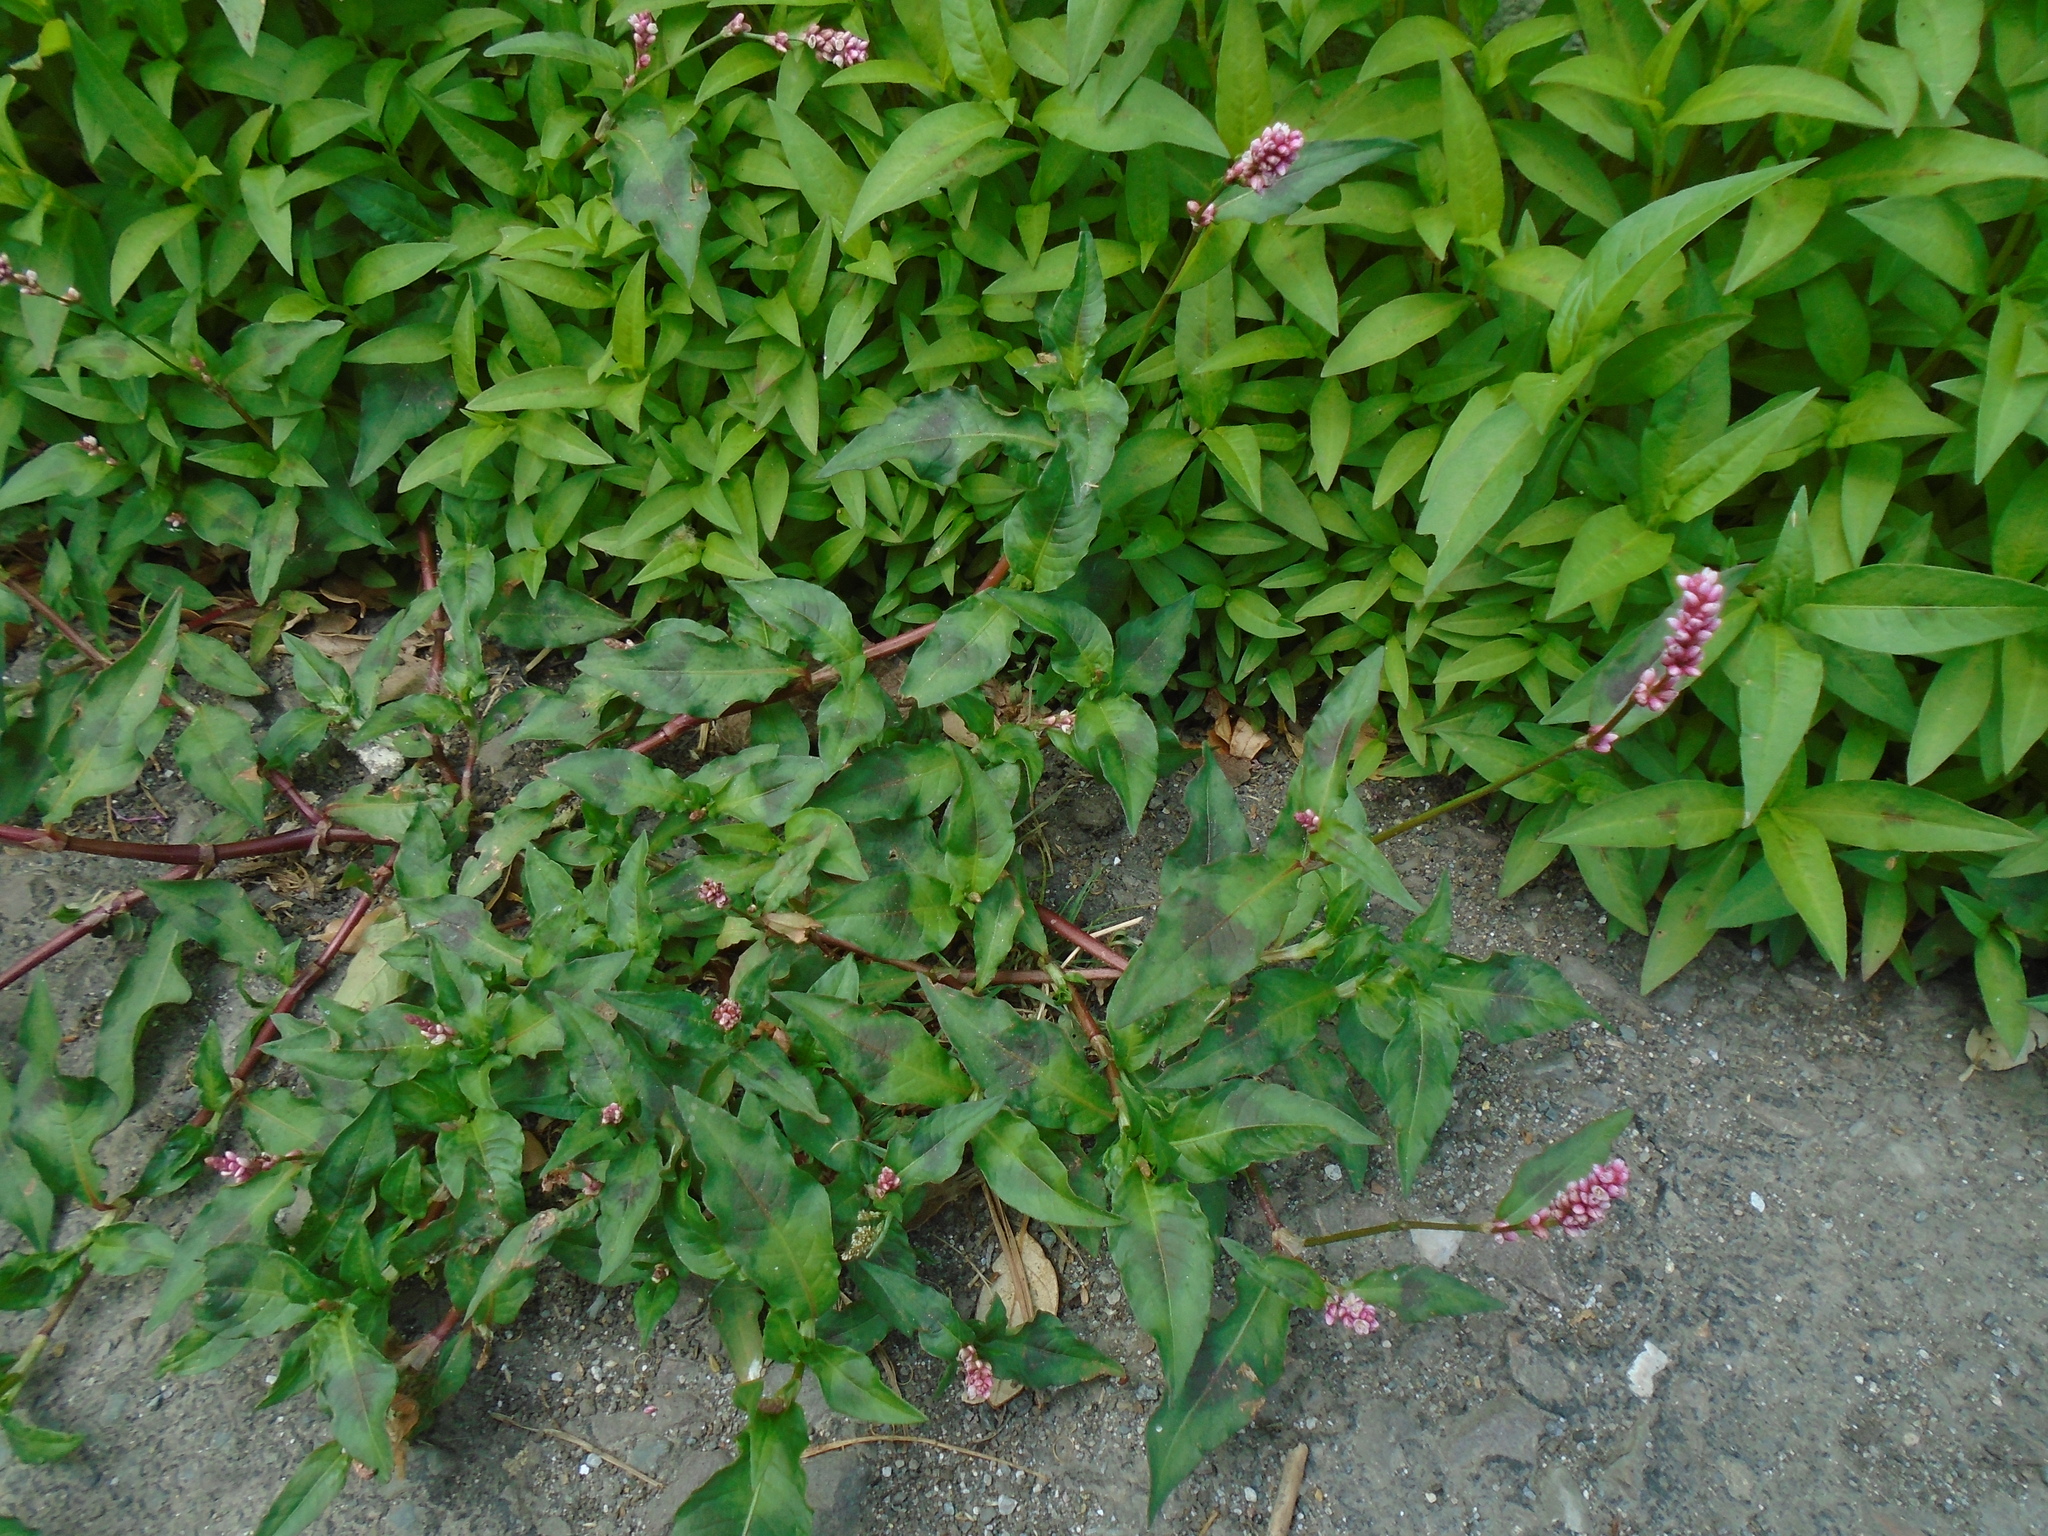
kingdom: Plantae
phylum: Tracheophyta
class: Magnoliopsida
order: Rosales
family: Urticaceae
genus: Parietaria
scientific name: Parietaria judaica
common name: Pellitory-of-the-wall
